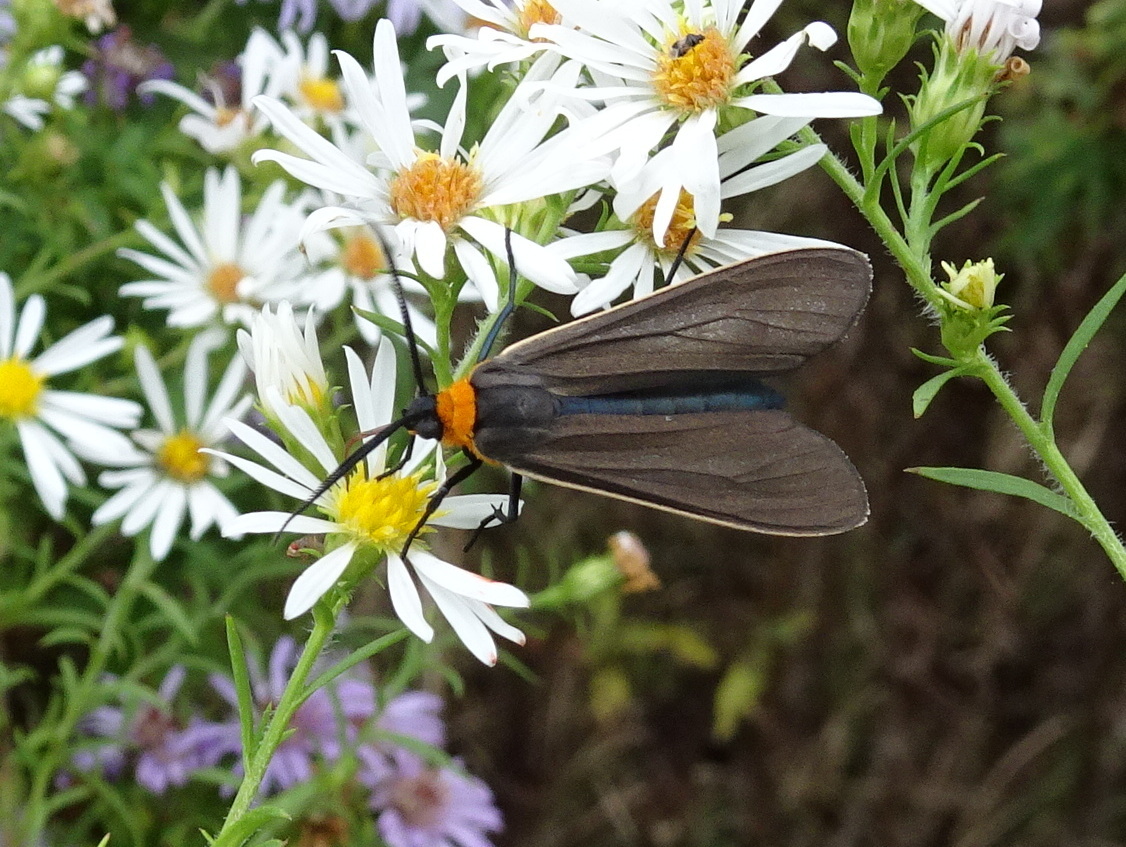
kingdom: Animalia
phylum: Arthropoda
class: Insecta
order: Lepidoptera
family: Erebidae
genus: Cisseps
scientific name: Cisseps fulvicollis
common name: Yellow-collared scape moth
